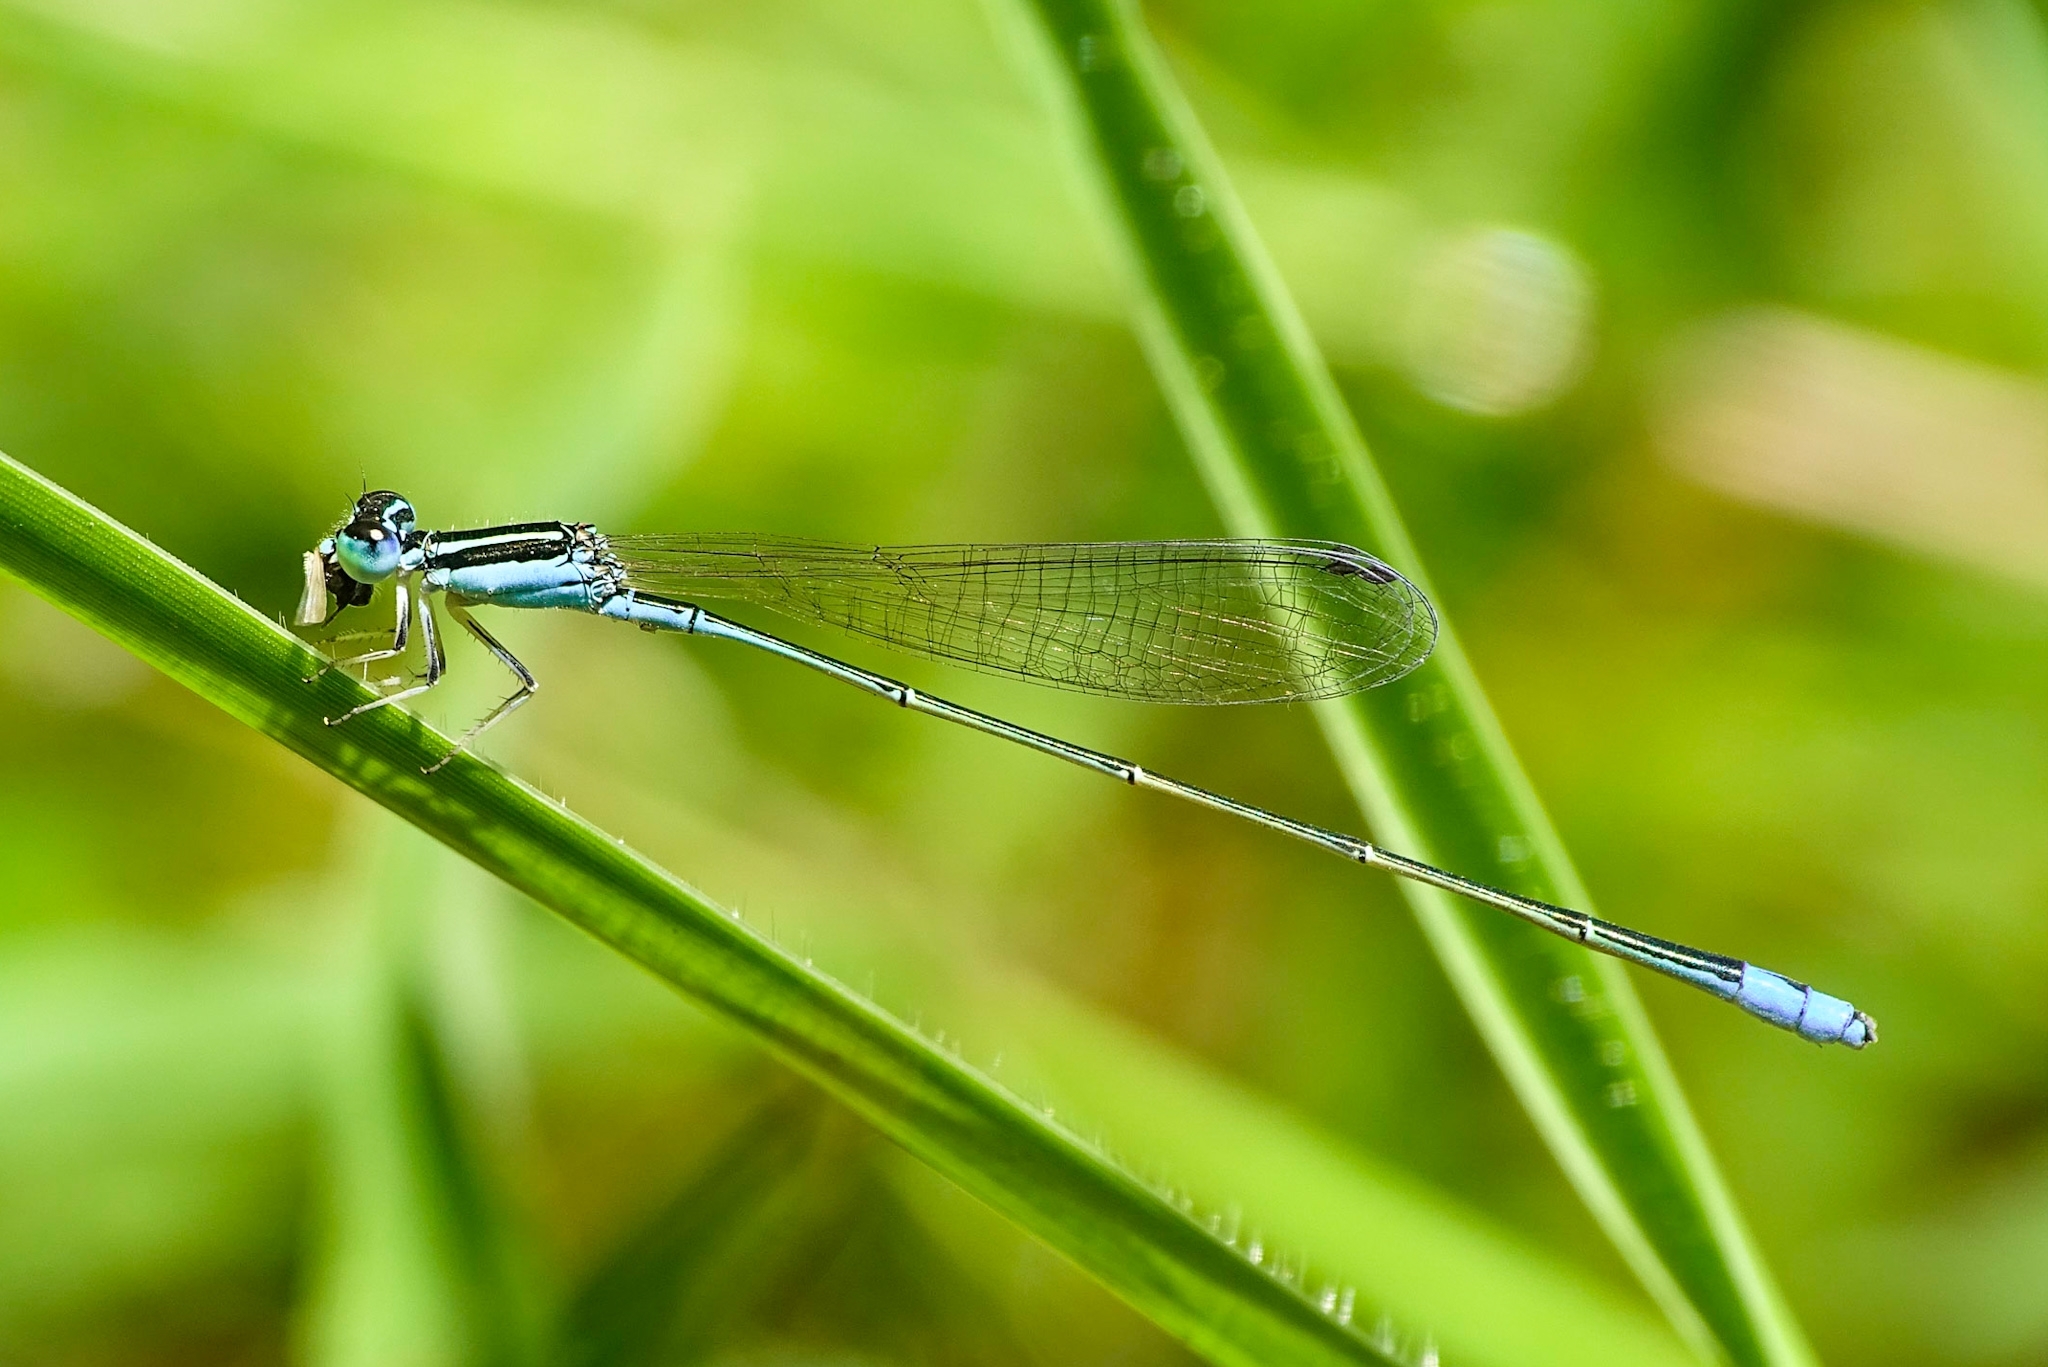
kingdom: Animalia
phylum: Arthropoda
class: Insecta
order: Odonata
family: Coenagrionidae
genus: Aciagrion
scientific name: Aciagrion occidentale
